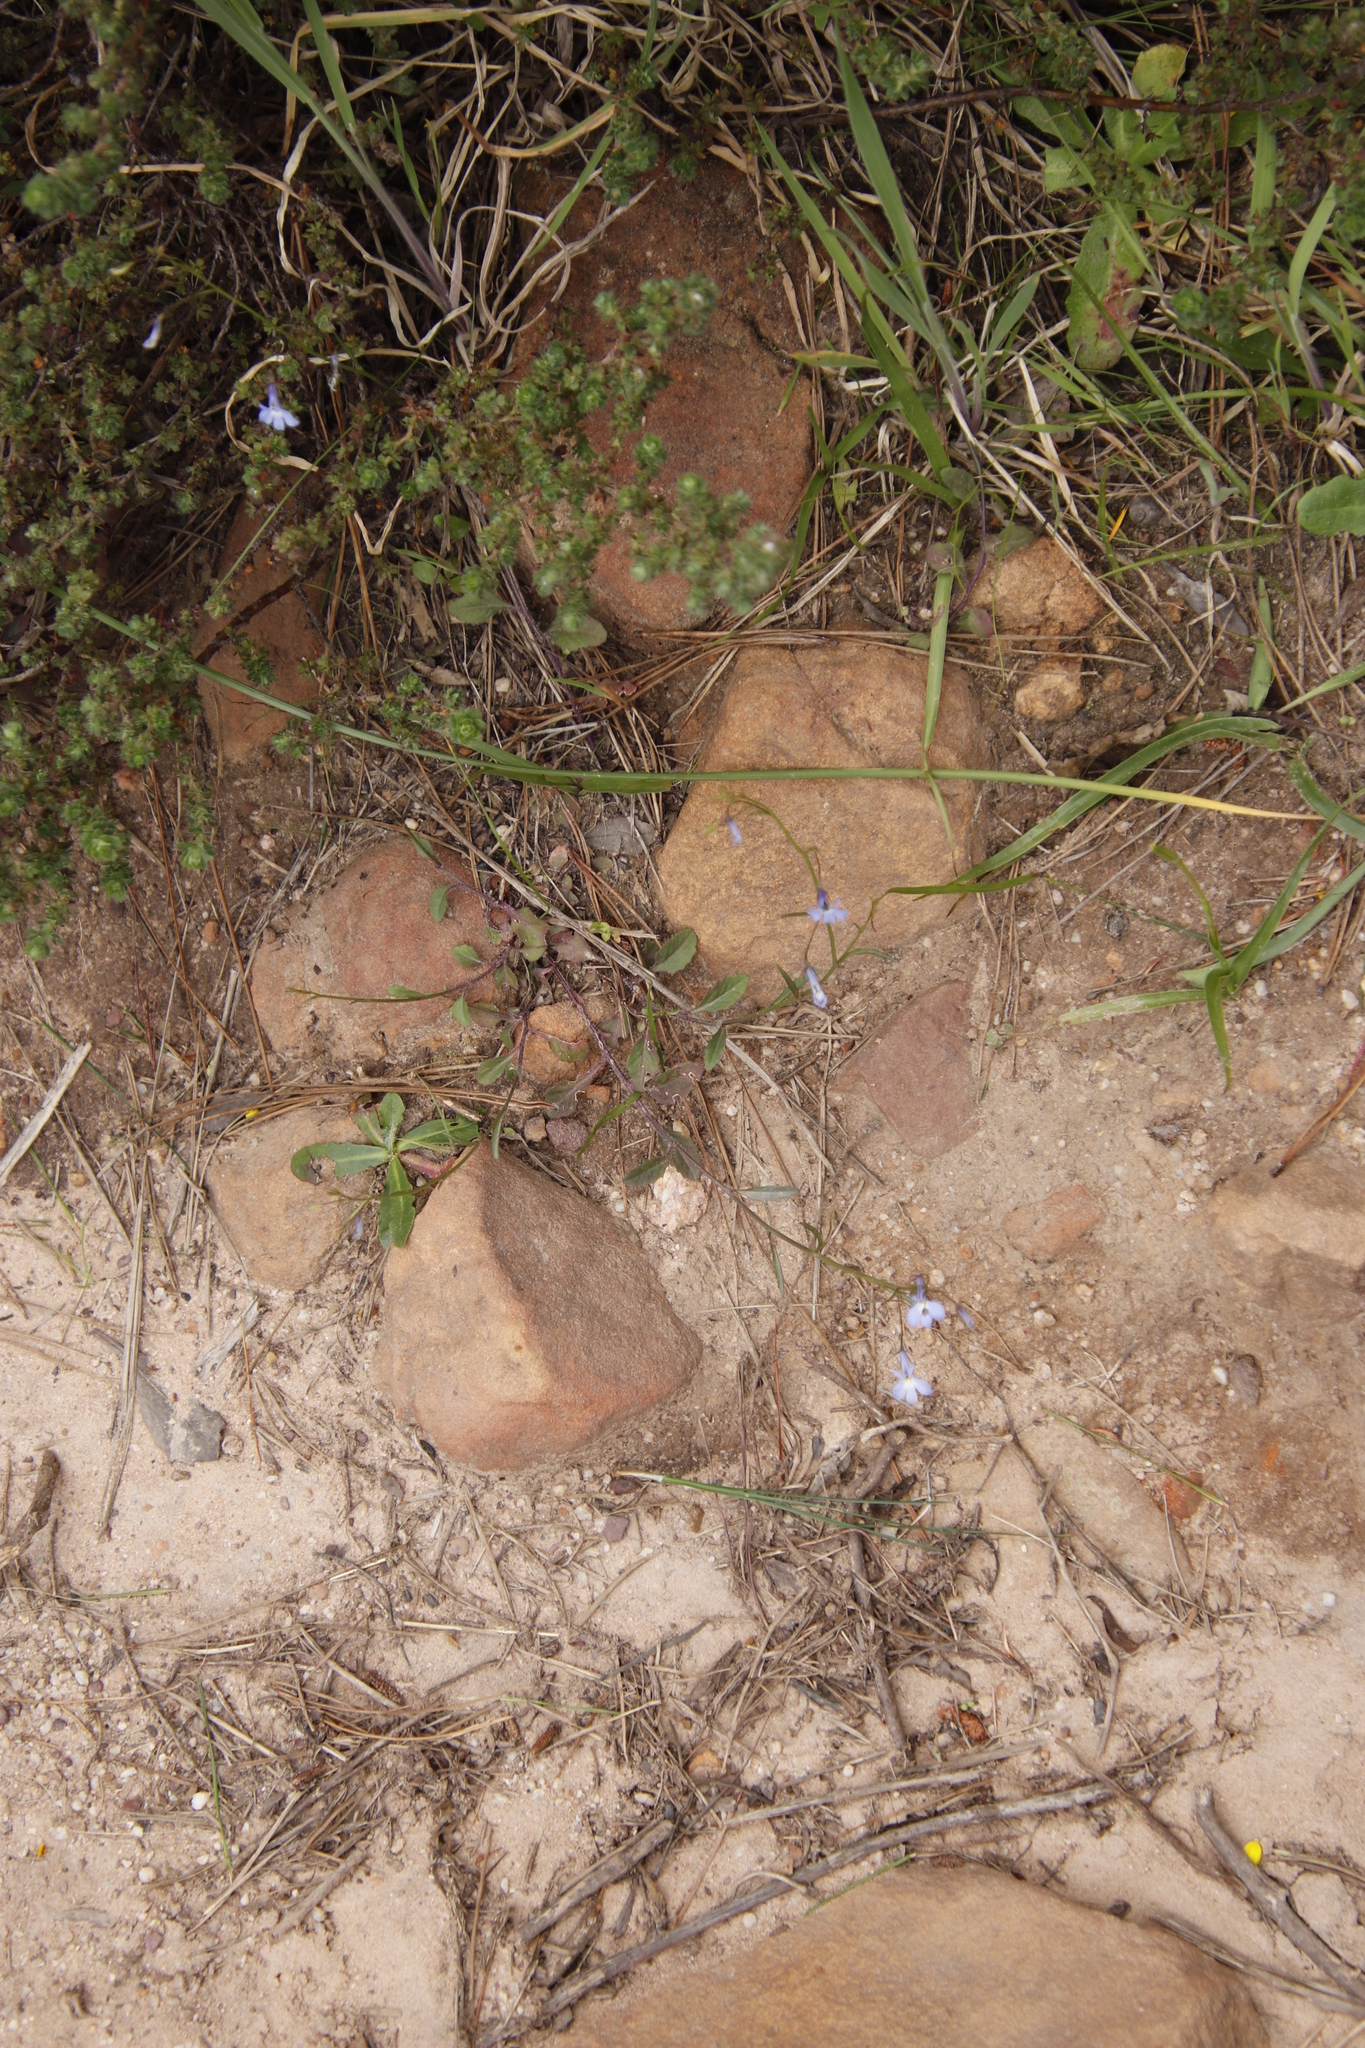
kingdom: Plantae
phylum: Tracheophyta
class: Magnoliopsida
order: Asterales
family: Campanulaceae
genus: Lobelia
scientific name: Lobelia erinus
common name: Edging lobelia
